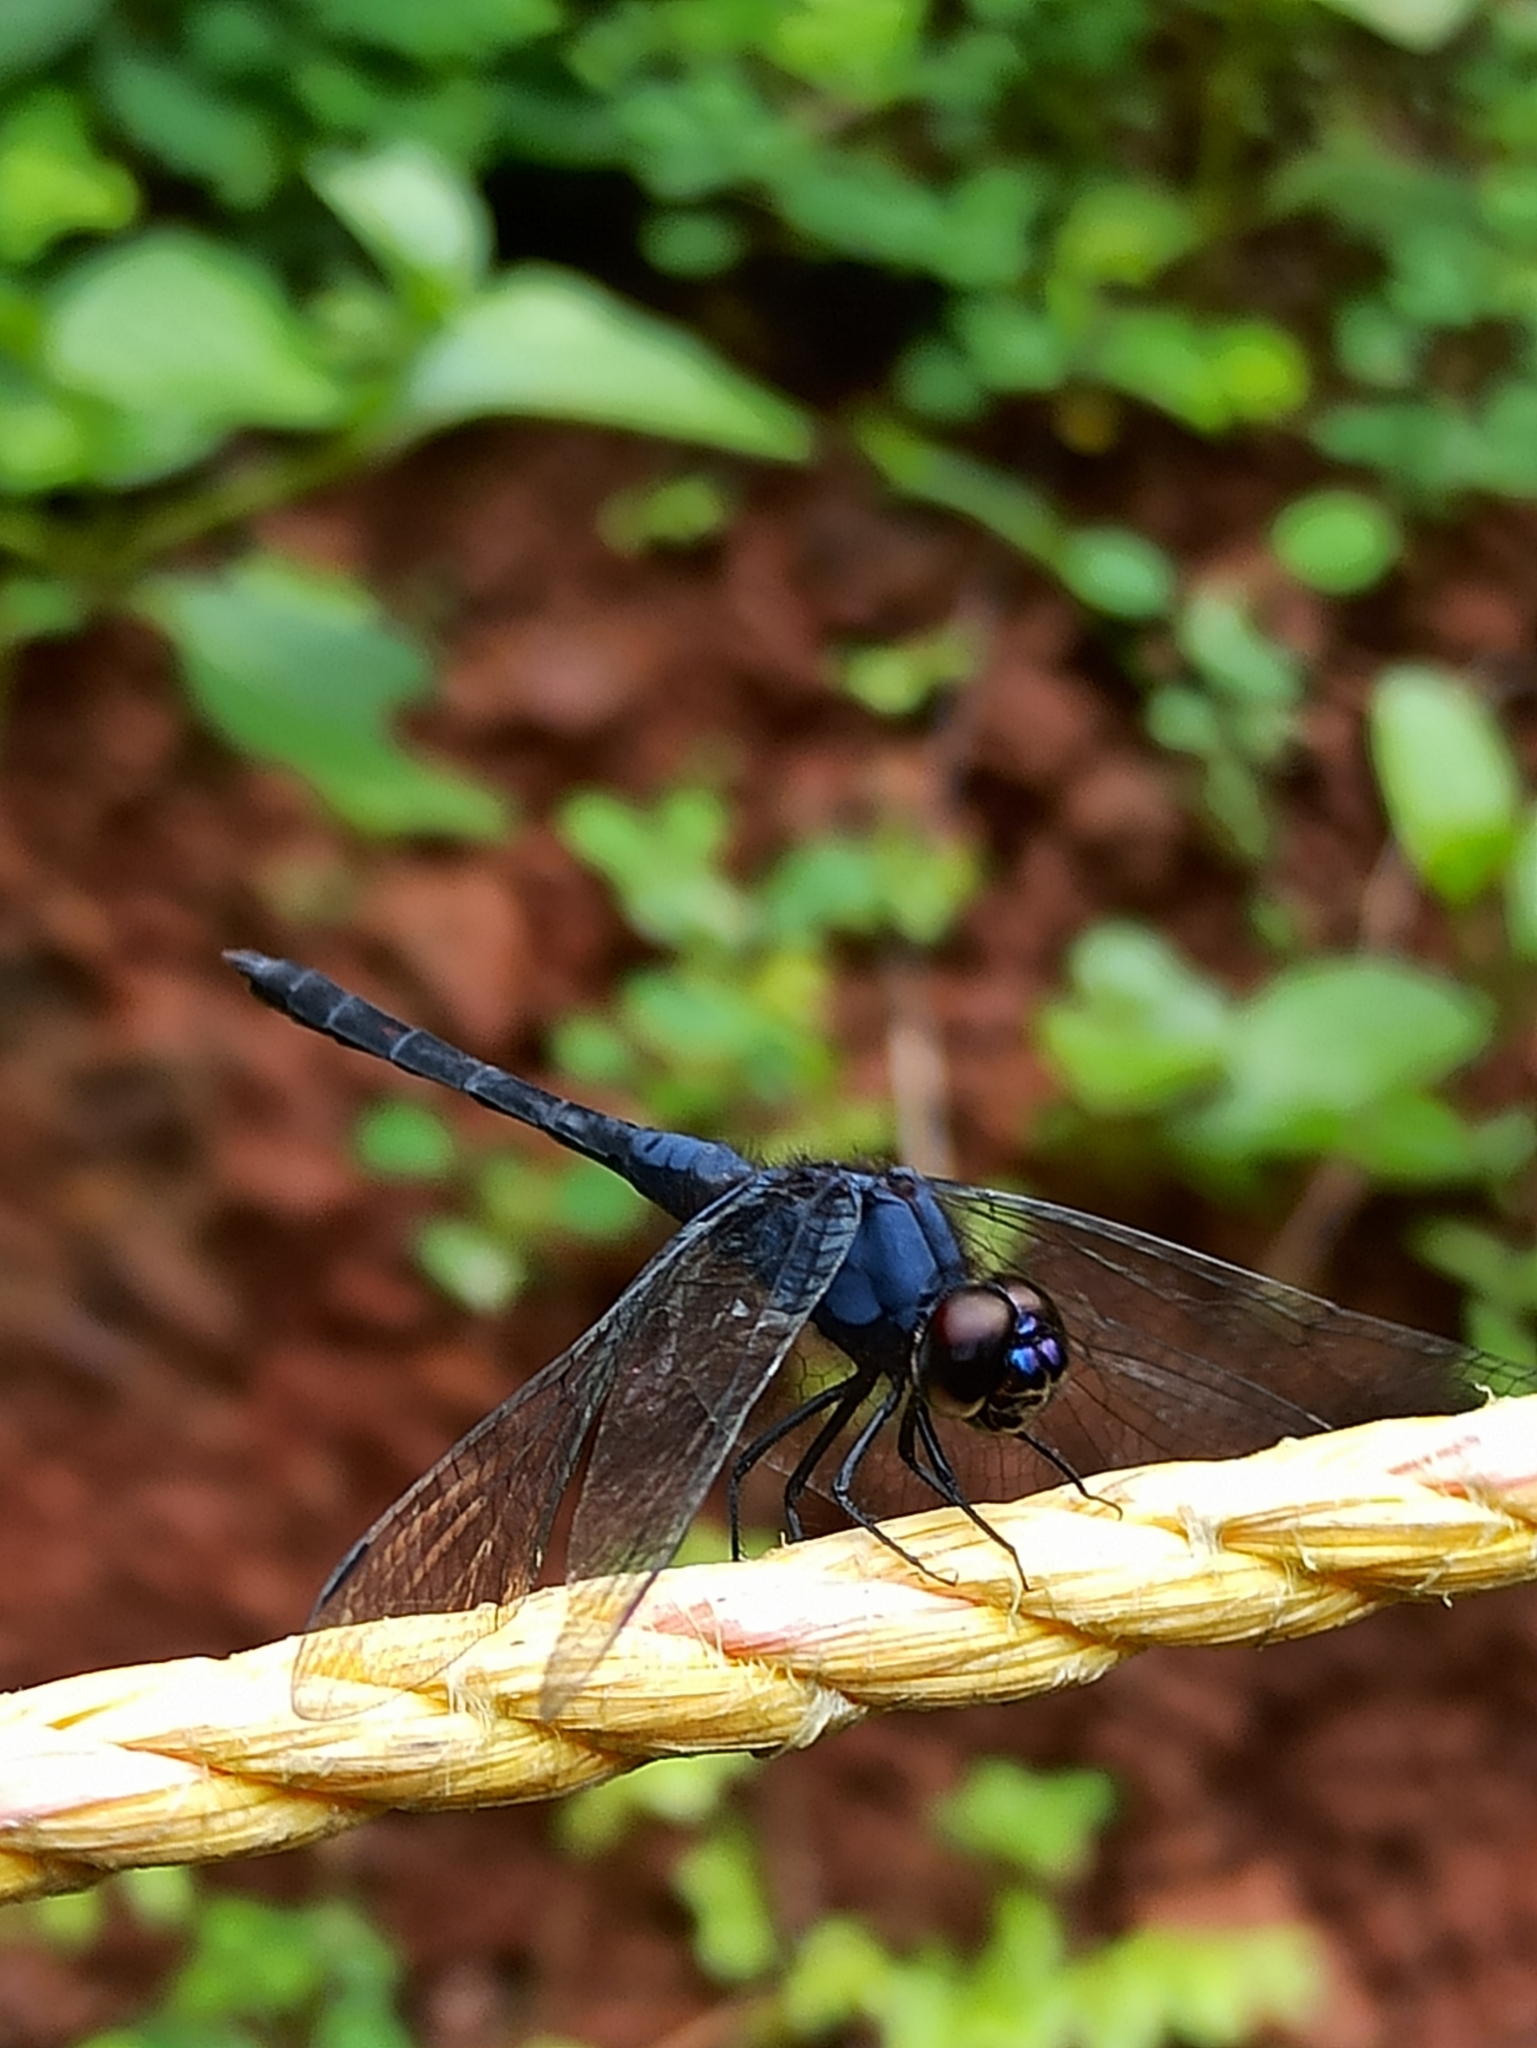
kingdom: Animalia
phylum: Arthropoda
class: Insecta
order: Odonata
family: Libellulidae
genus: Trithemis
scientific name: Trithemis festiva
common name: Indigo dropwing
